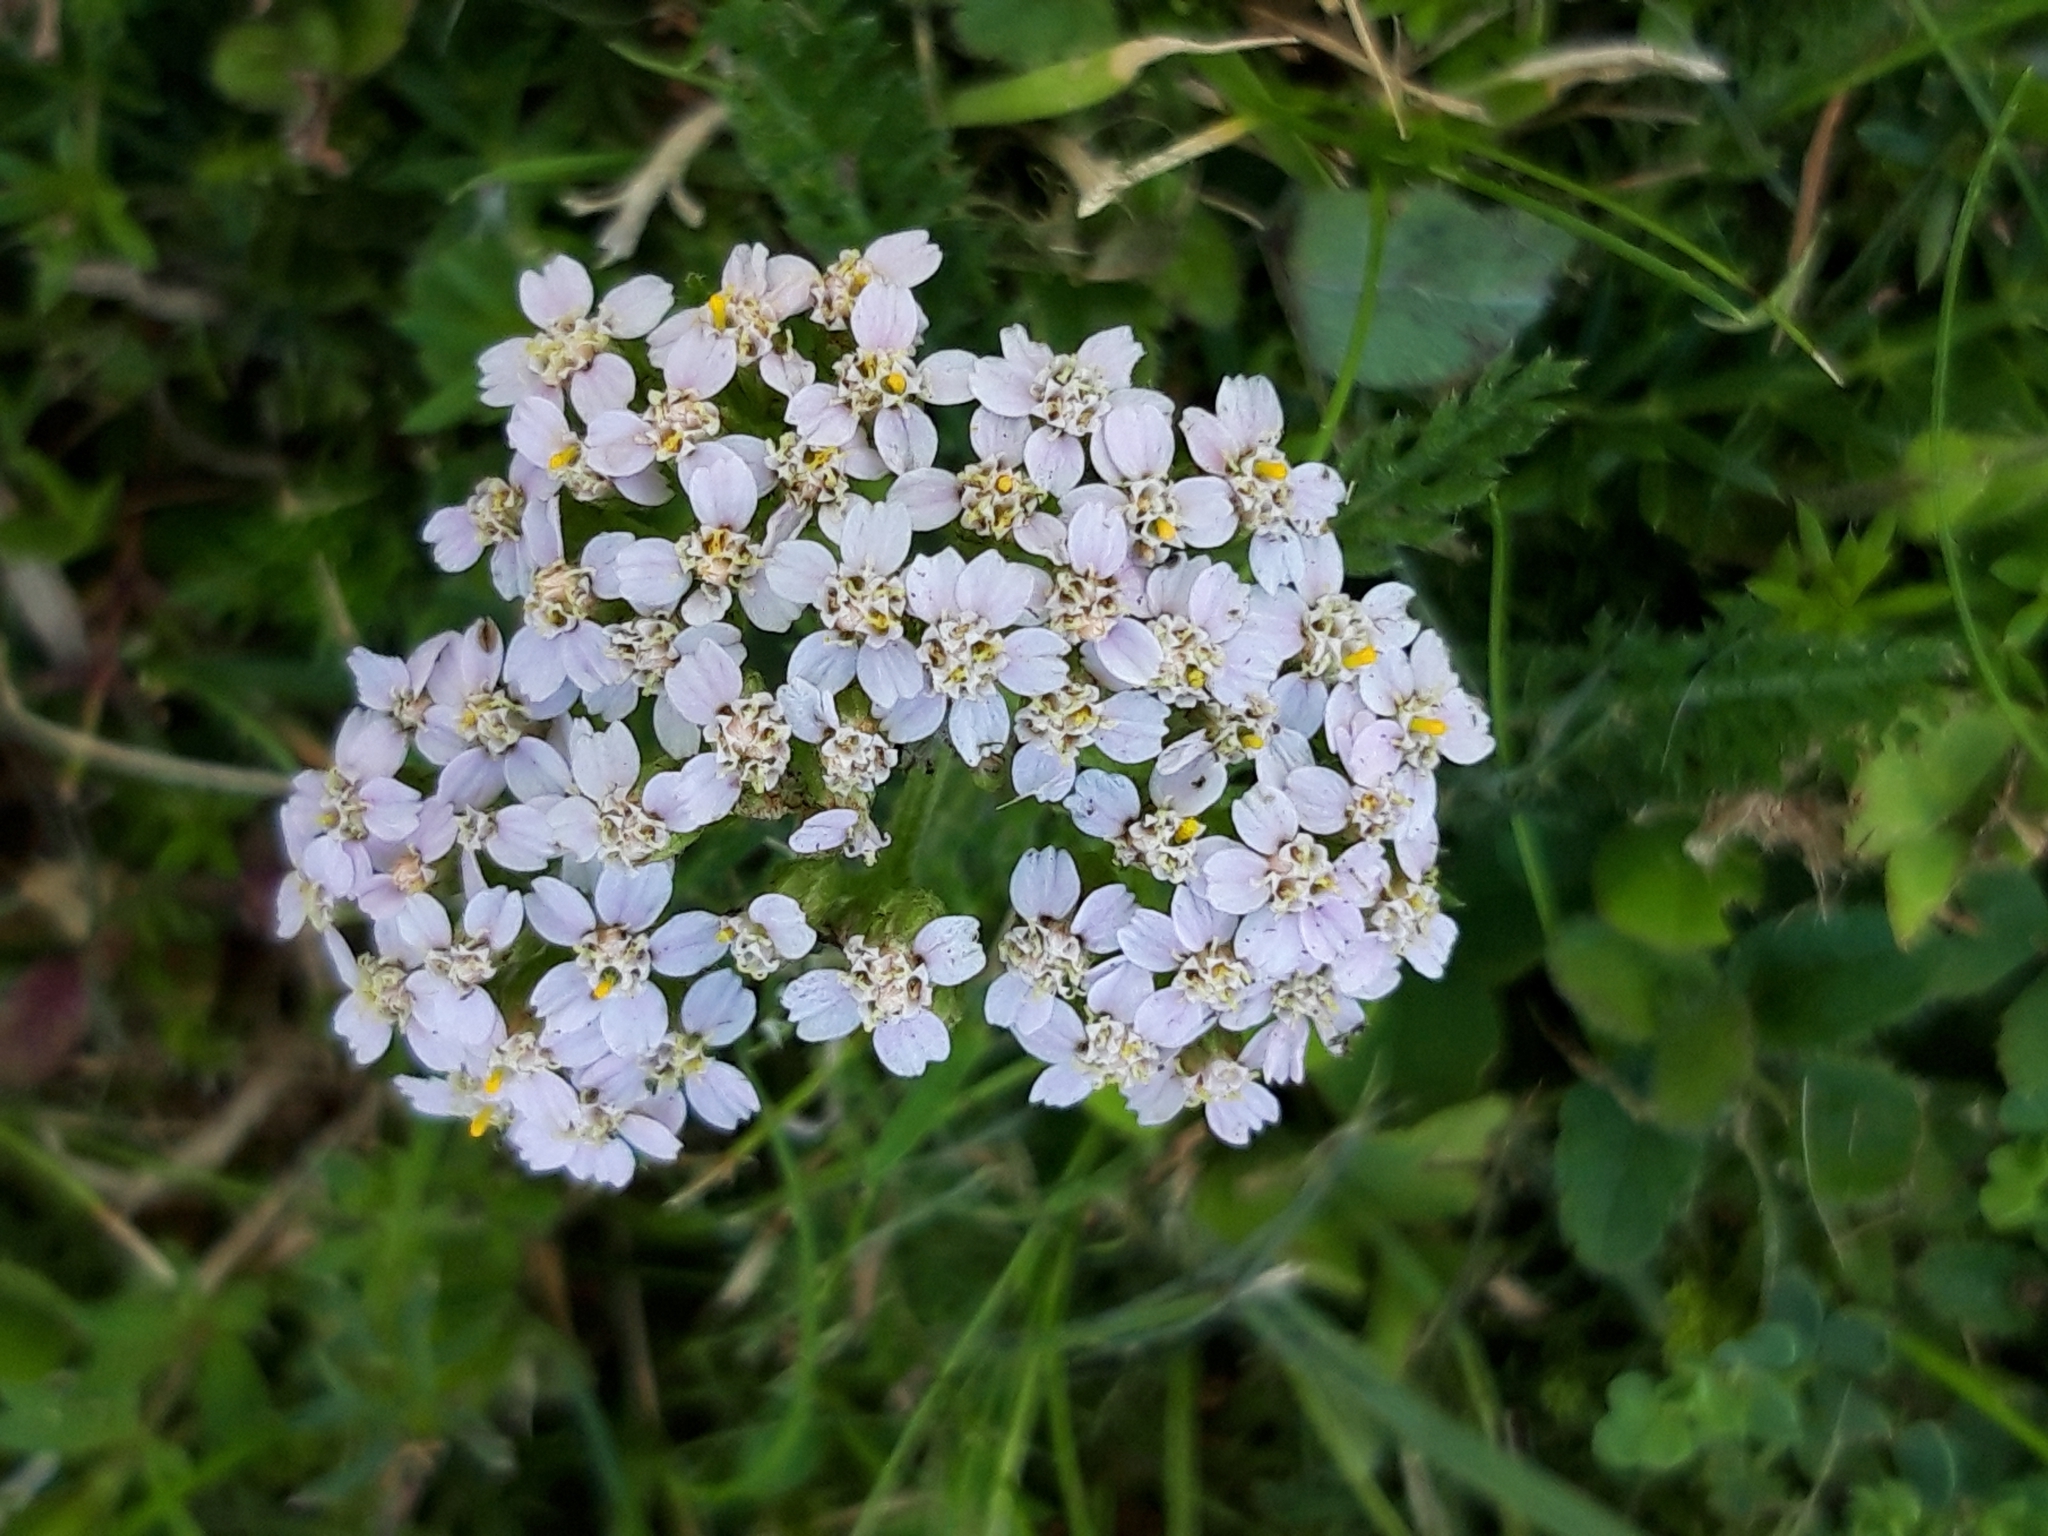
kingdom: Plantae
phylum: Tracheophyta
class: Magnoliopsida
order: Asterales
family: Asteraceae
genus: Achillea
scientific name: Achillea millefolium
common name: Yarrow
